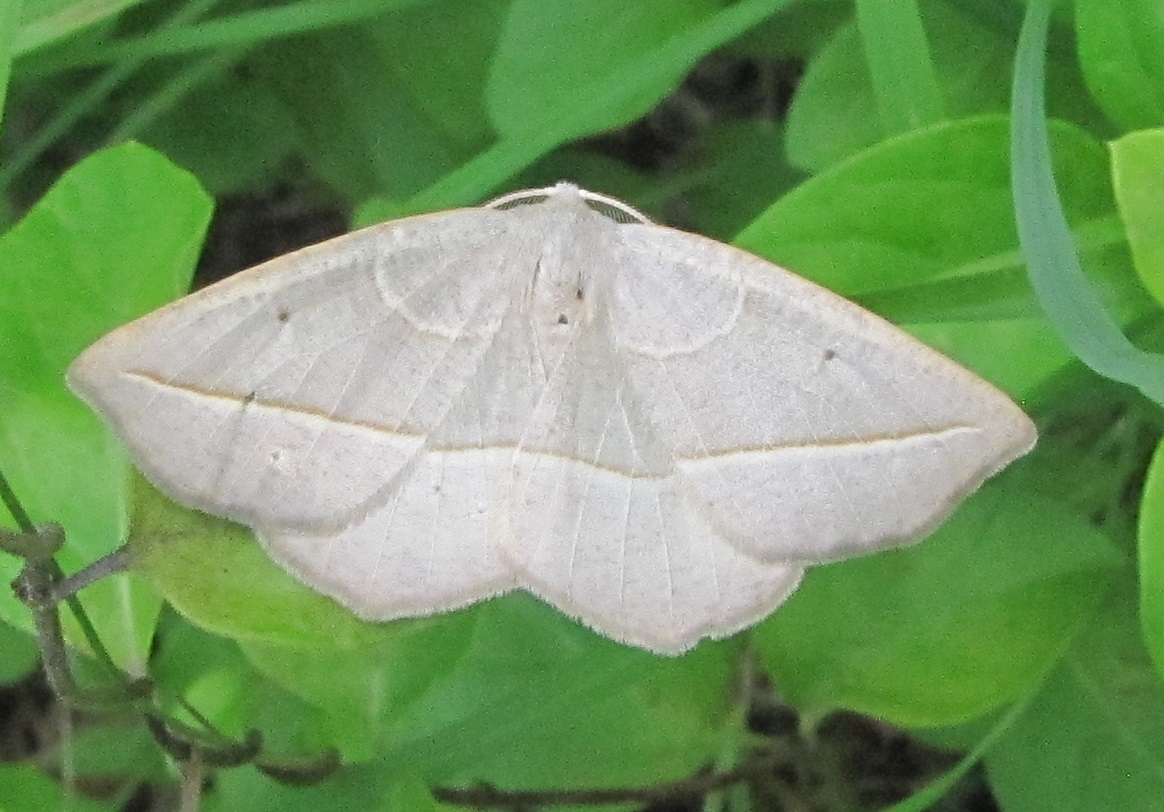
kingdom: Animalia
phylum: Arthropoda
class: Insecta
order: Lepidoptera
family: Geometridae
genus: Eusarca
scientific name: Eusarca confusaria
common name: Confused eusarca
